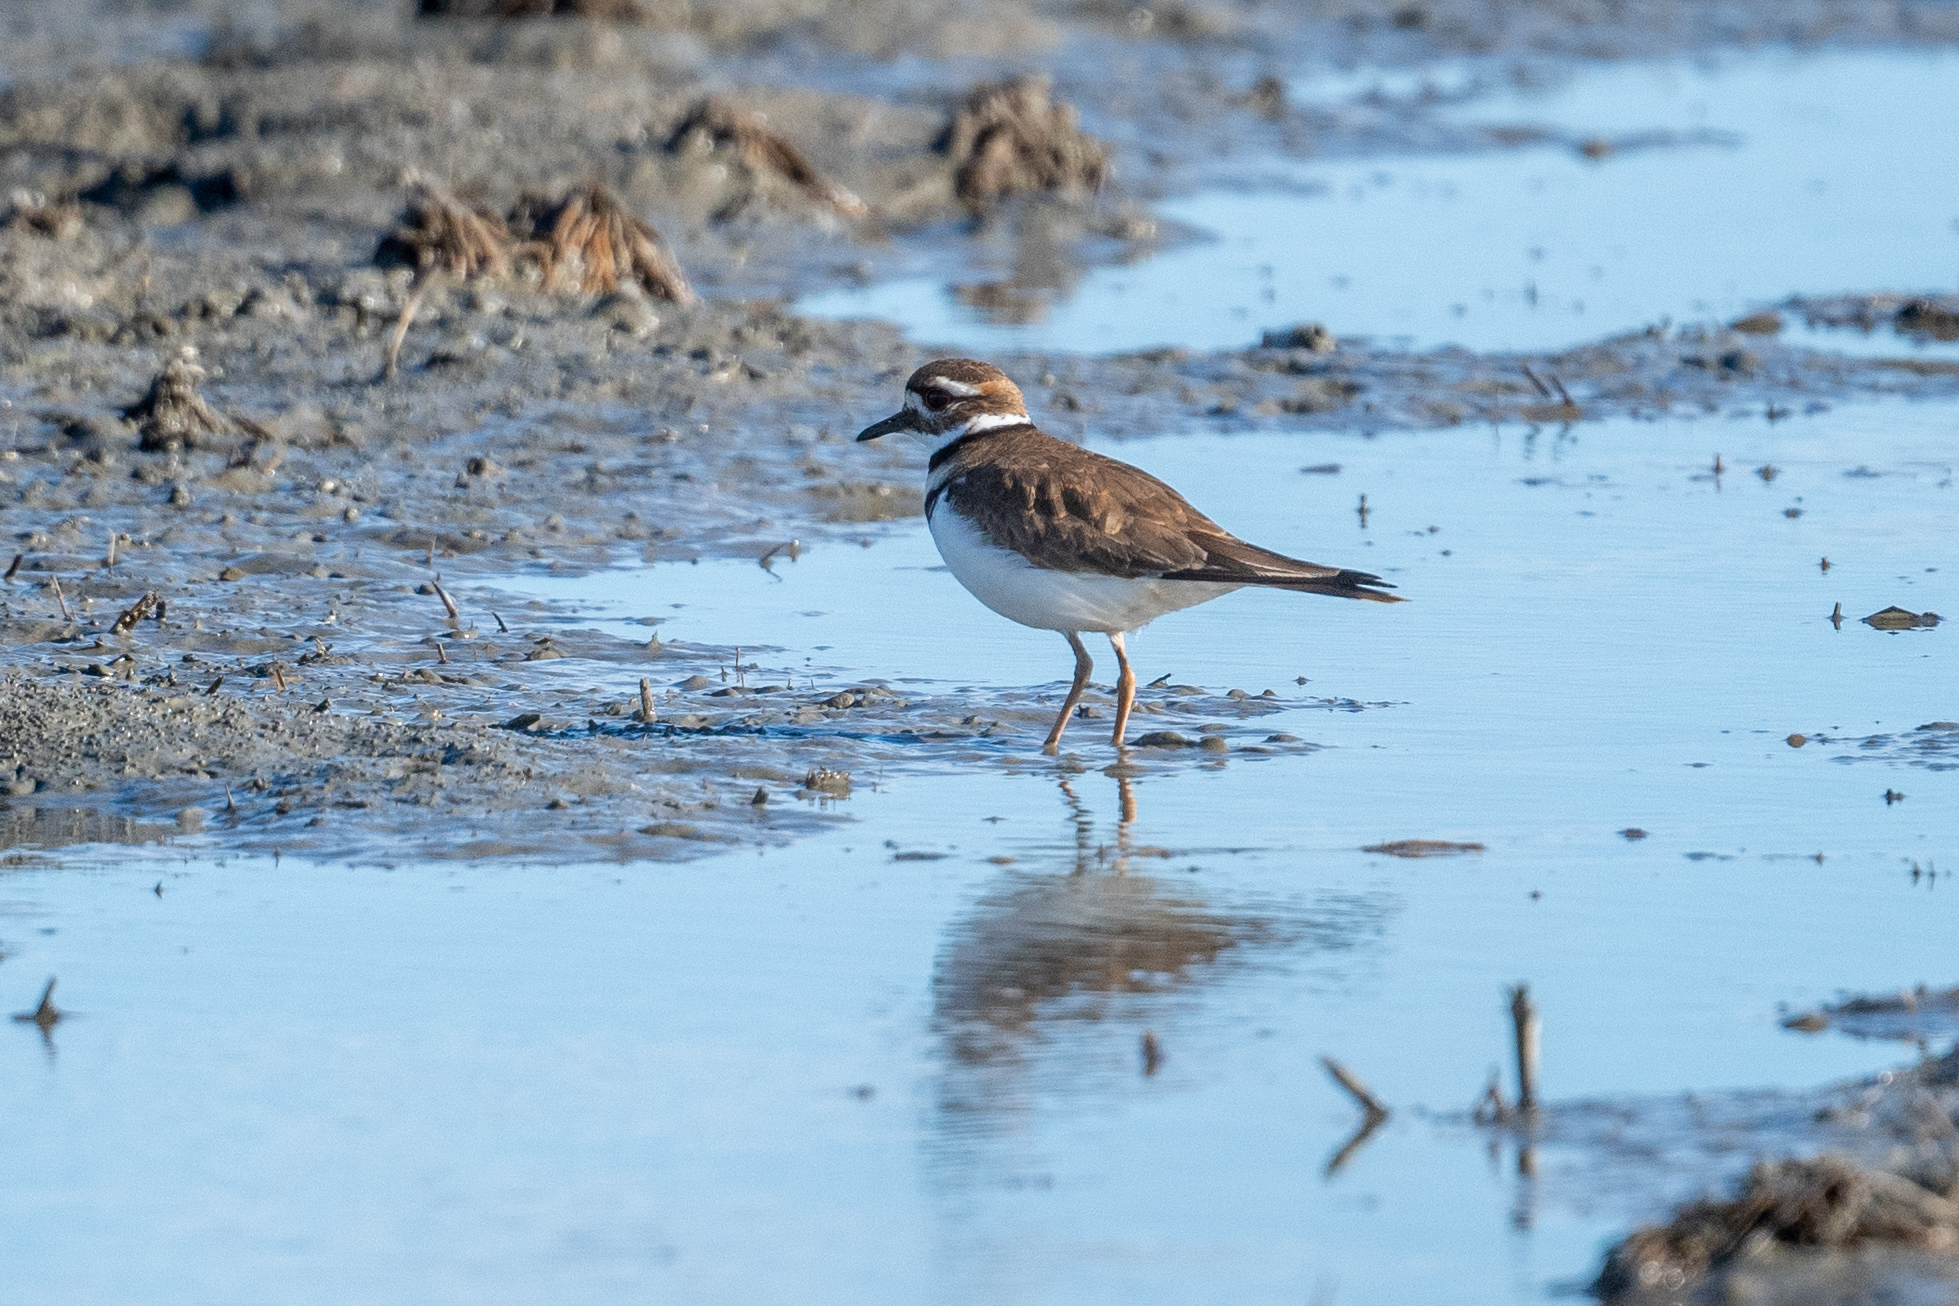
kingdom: Animalia
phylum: Chordata
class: Aves
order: Charadriiformes
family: Charadriidae
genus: Charadrius
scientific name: Charadrius vociferus
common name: Killdeer
